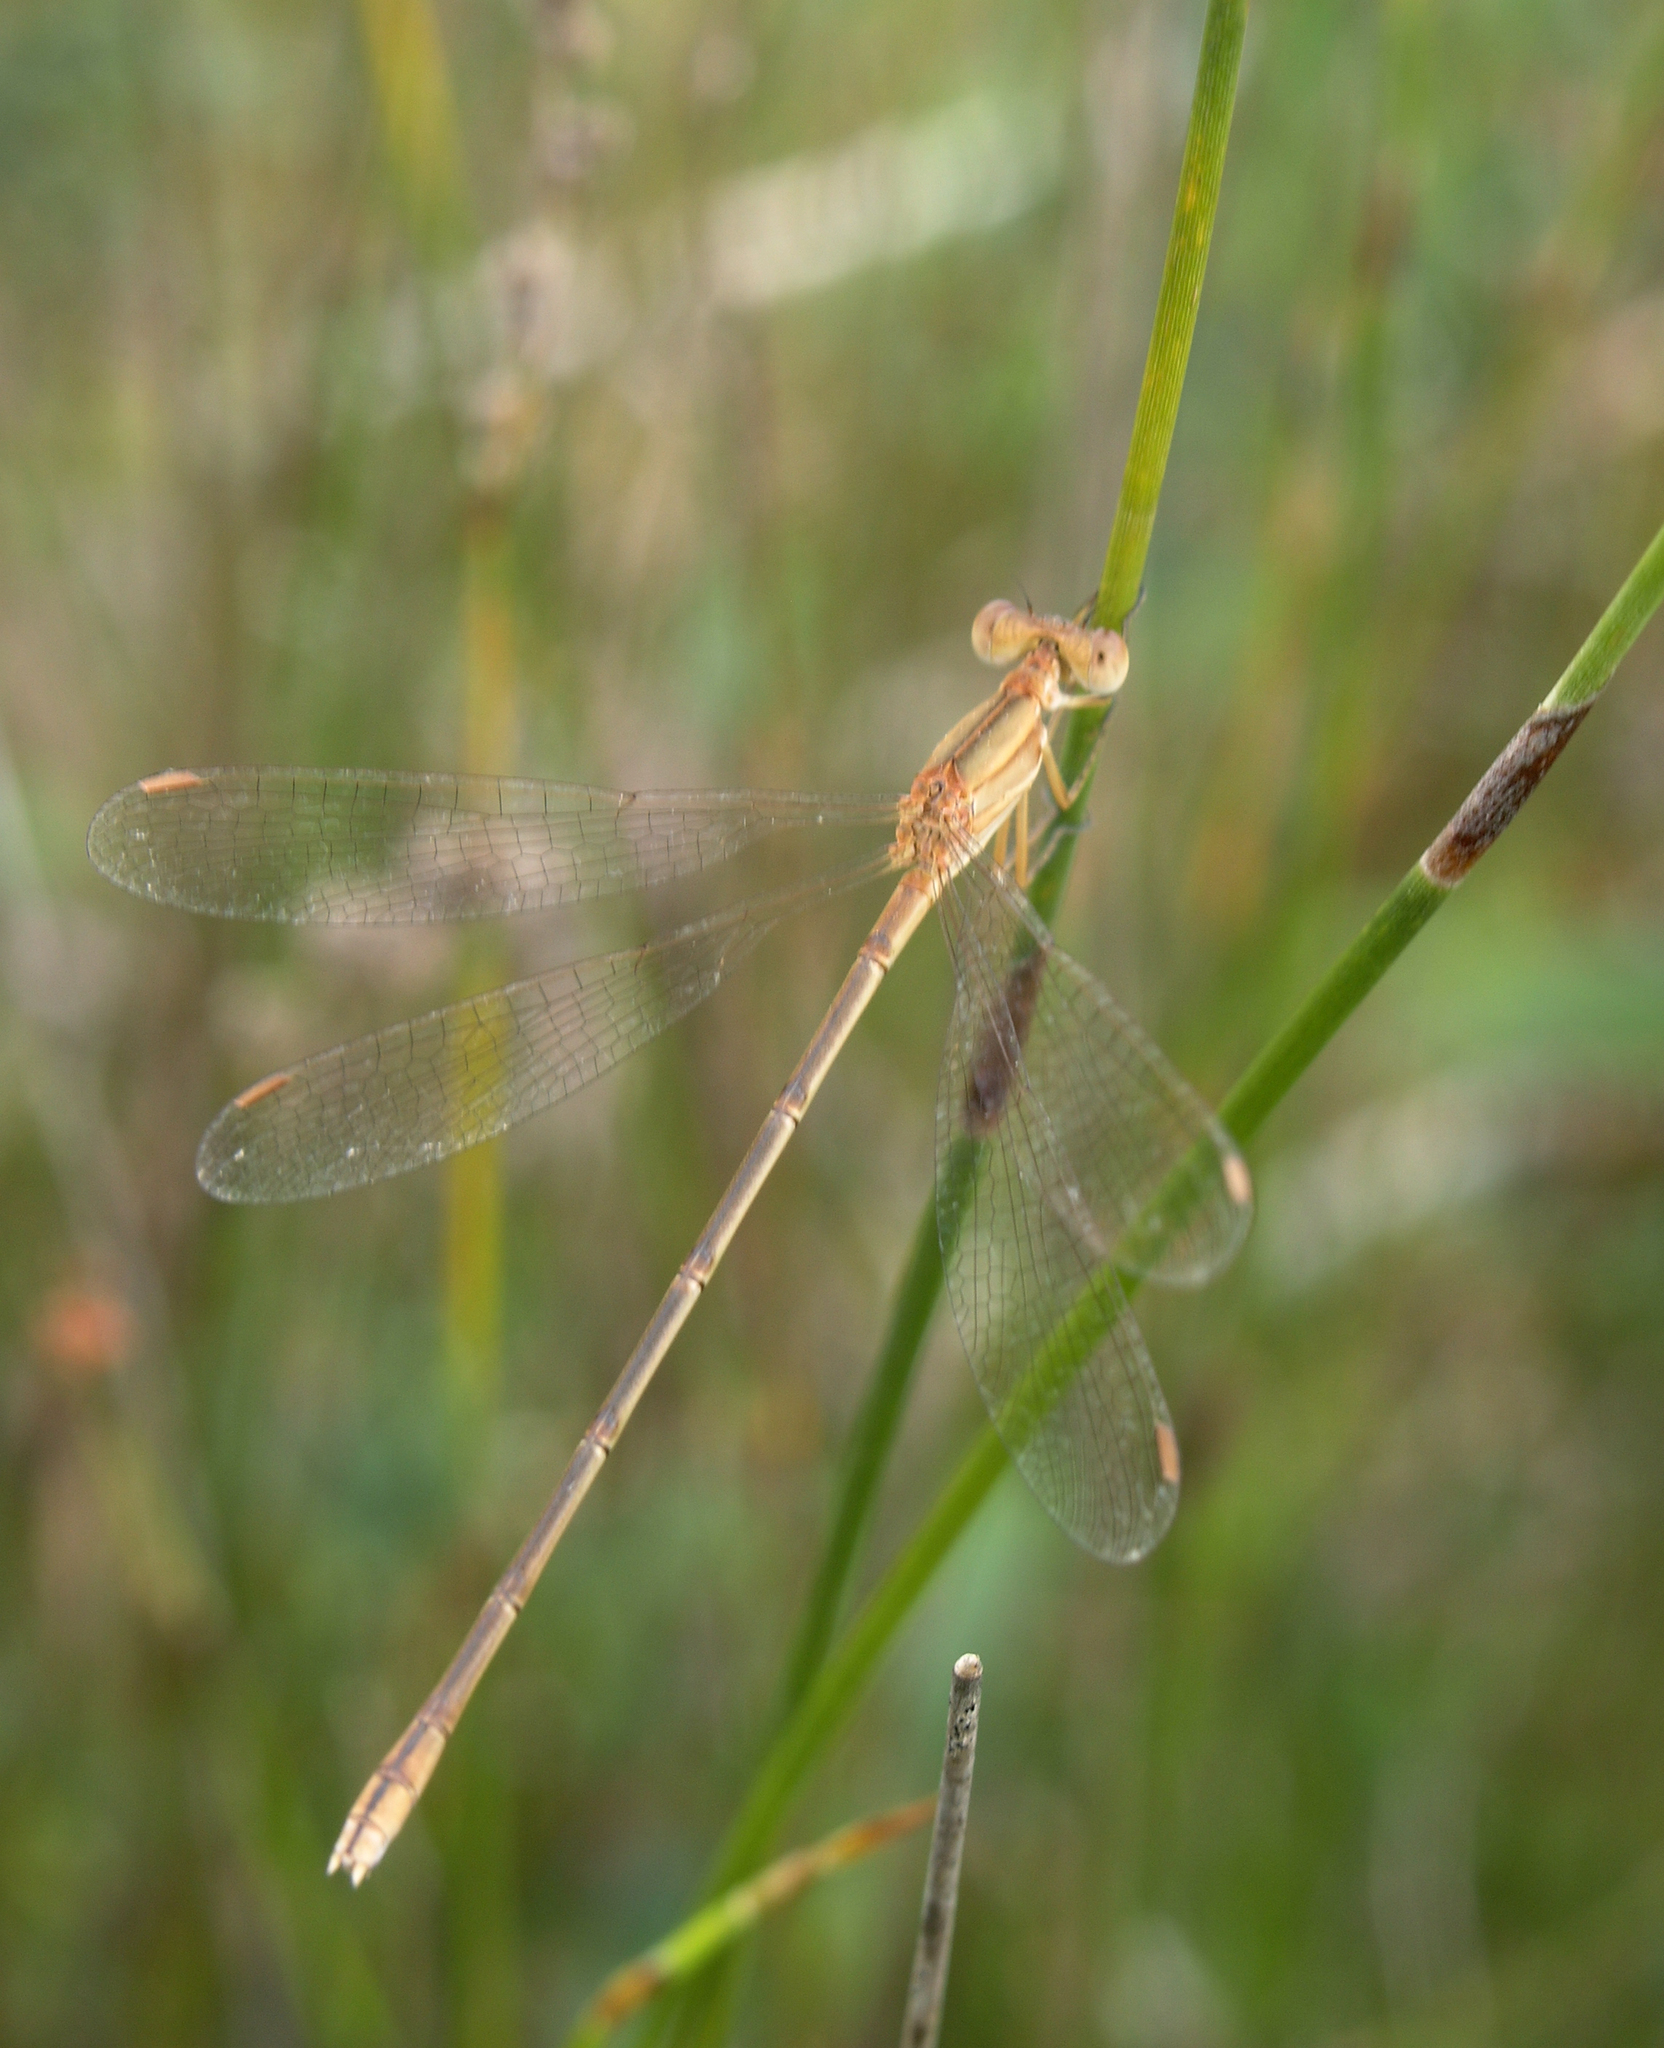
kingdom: Animalia
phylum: Arthropoda
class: Insecta
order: Odonata
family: Lestidae
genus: Lestes
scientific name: Lestes concinnus
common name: Dusky spreadwing
